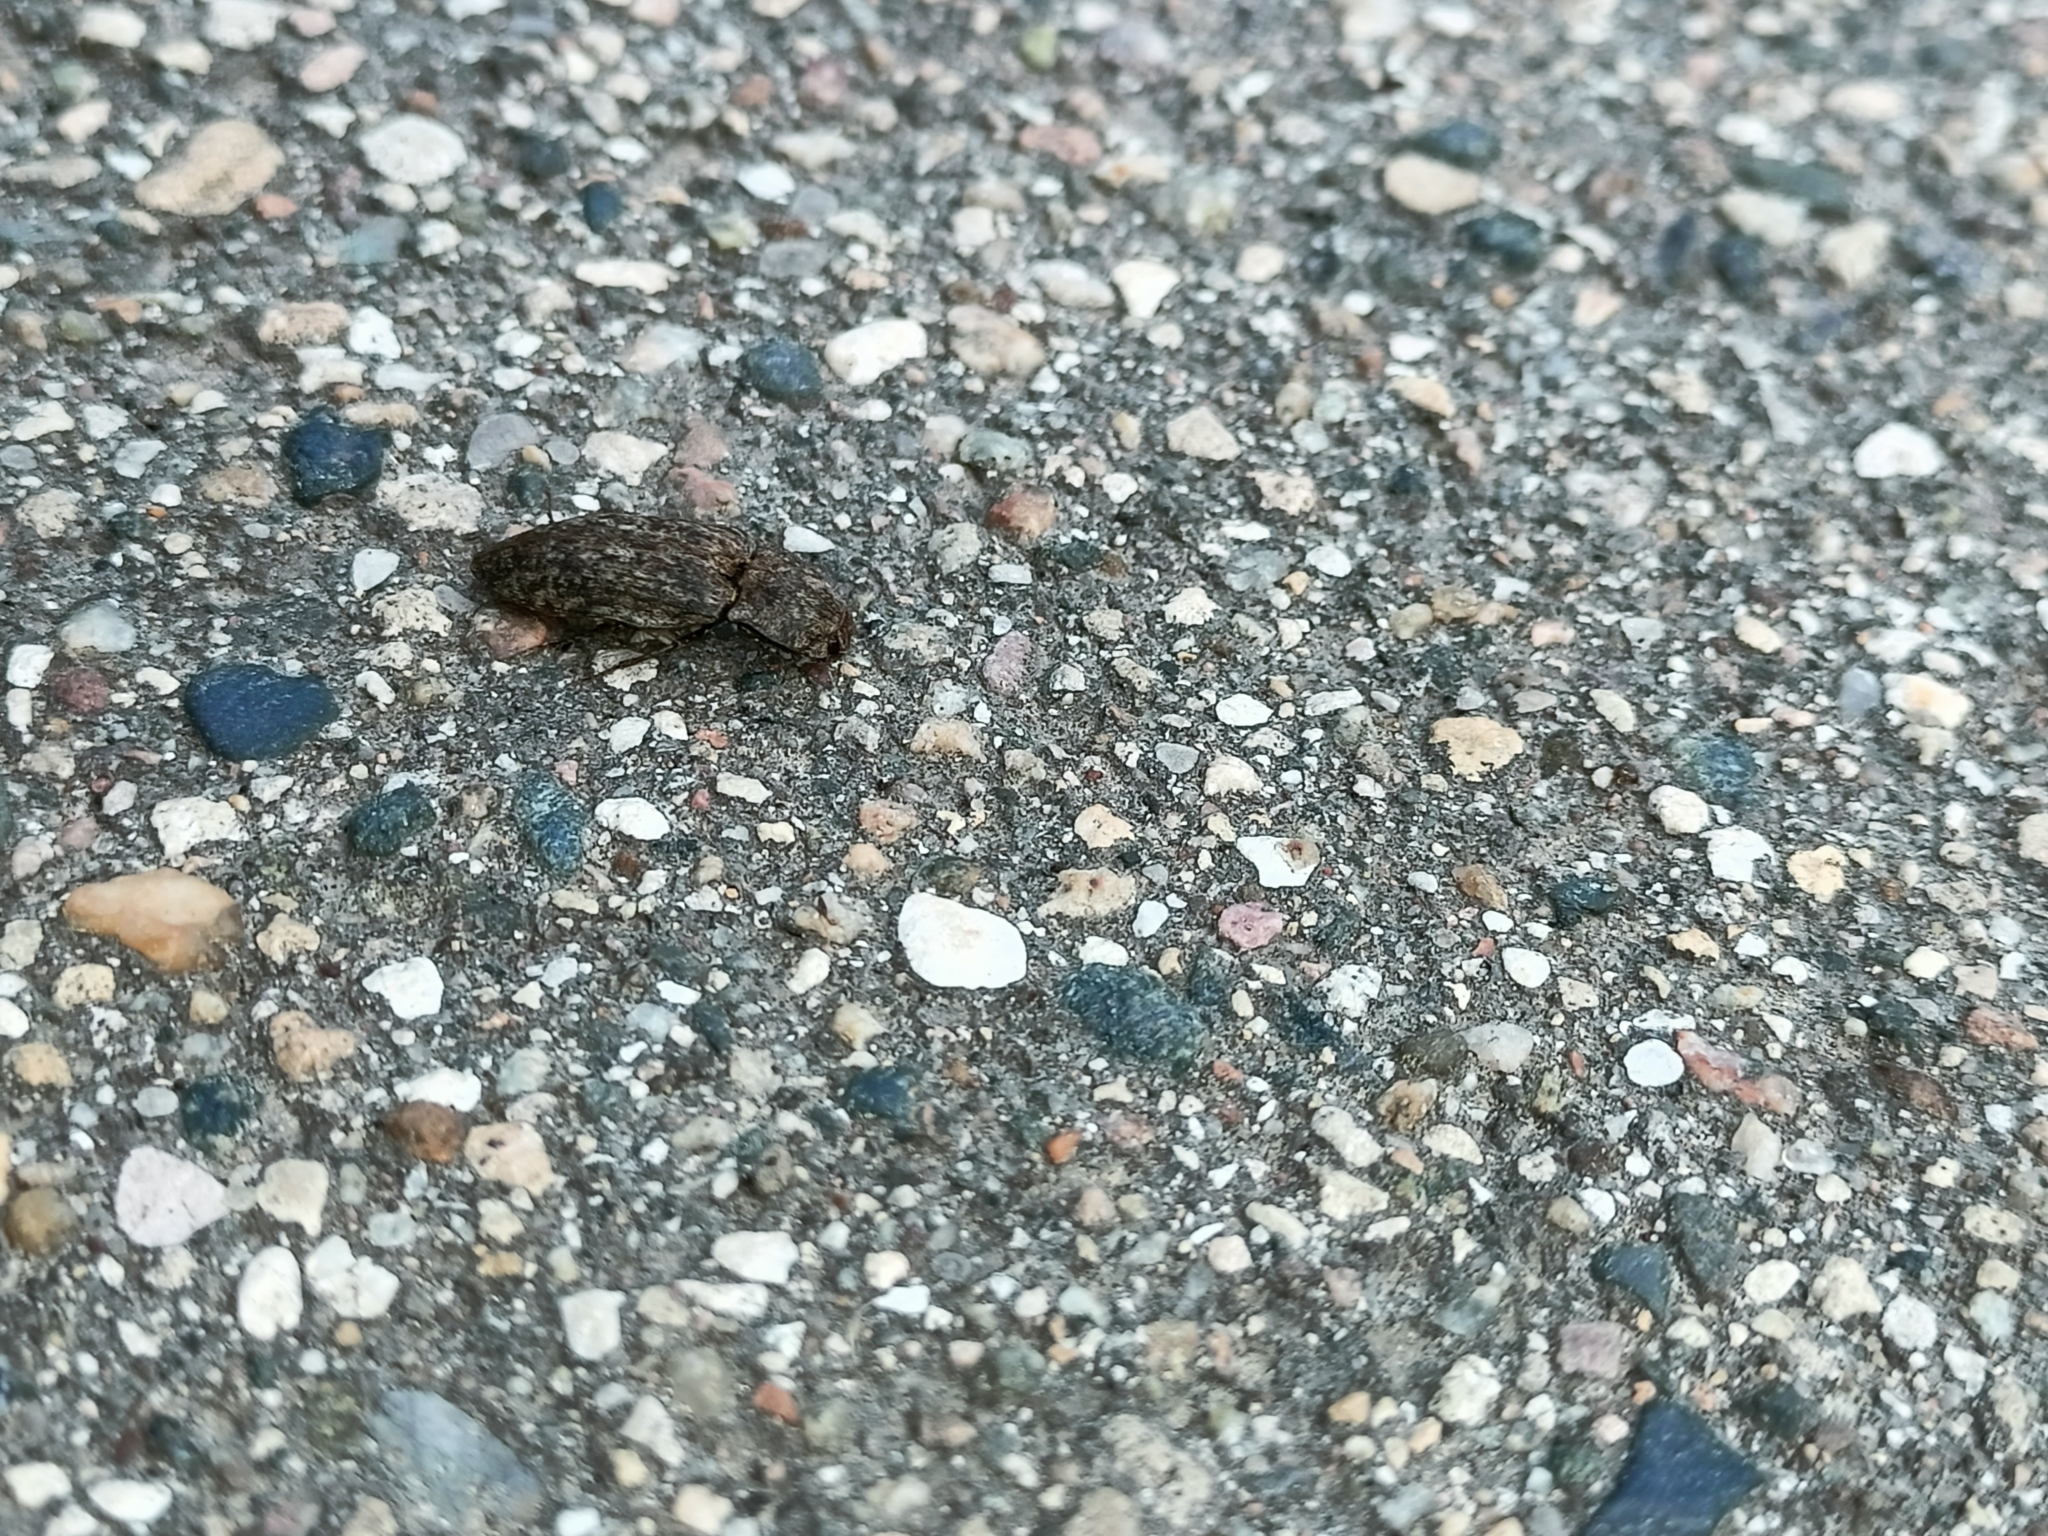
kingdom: Animalia
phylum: Arthropoda
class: Insecta
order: Coleoptera
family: Elateridae
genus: Agrypnus
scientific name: Agrypnus murinus
